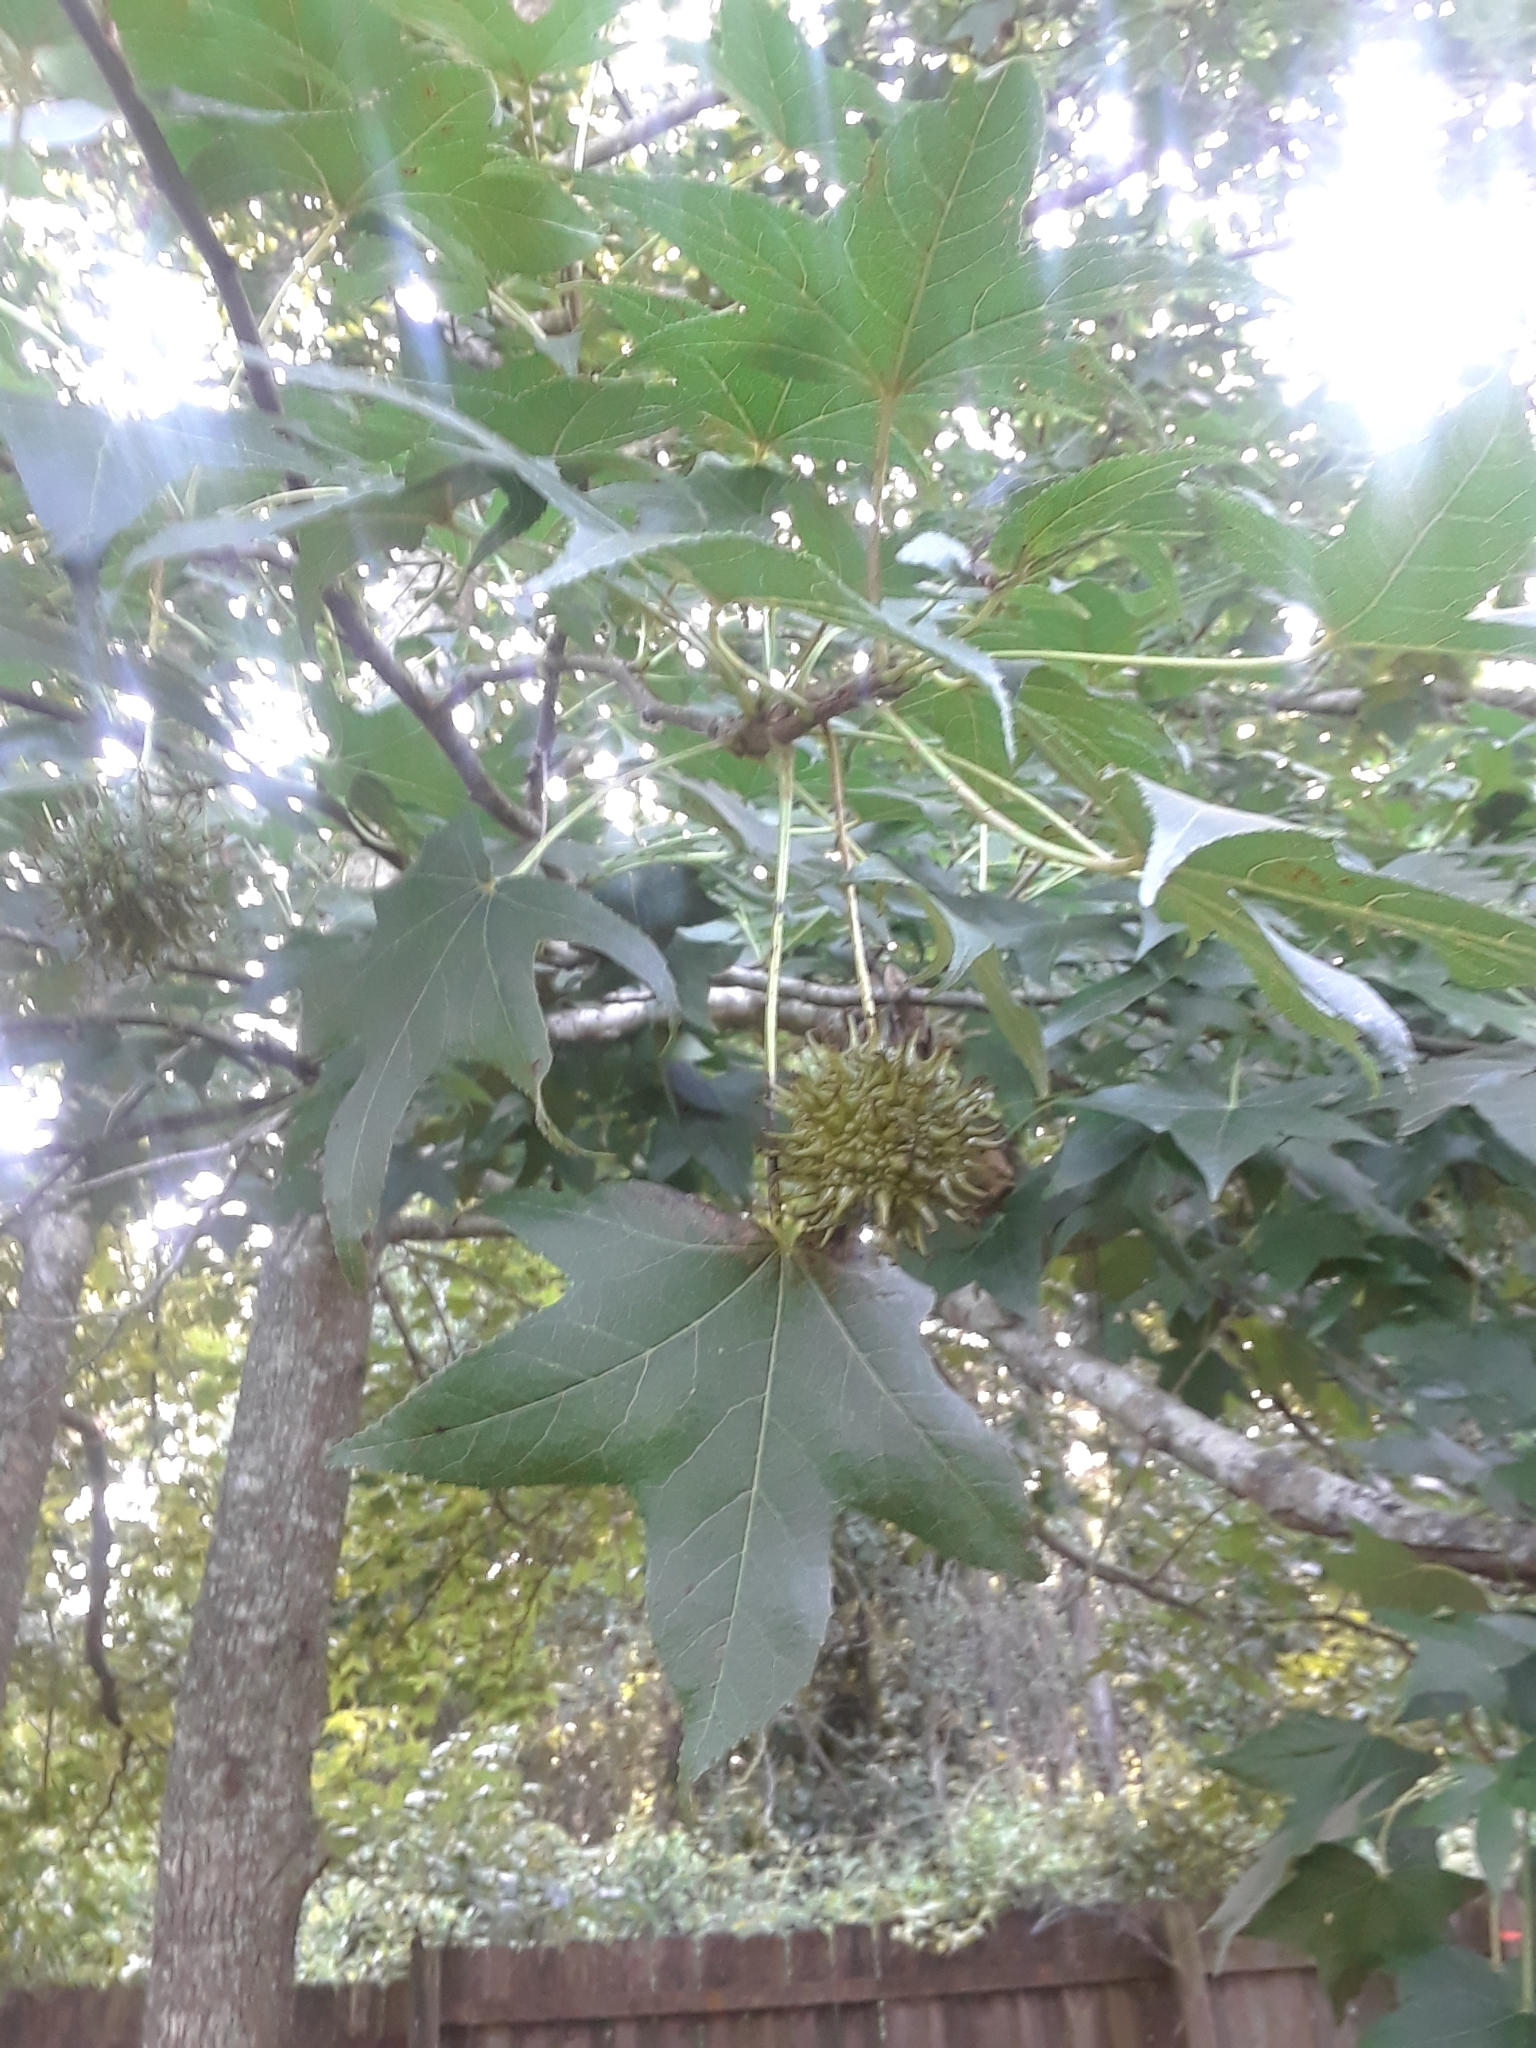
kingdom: Plantae
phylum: Tracheophyta
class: Magnoliopsida
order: Saxifragales
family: Altingiaceae
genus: Liquidambar
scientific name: Liquidambar styraciflua
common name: Sweet gum
